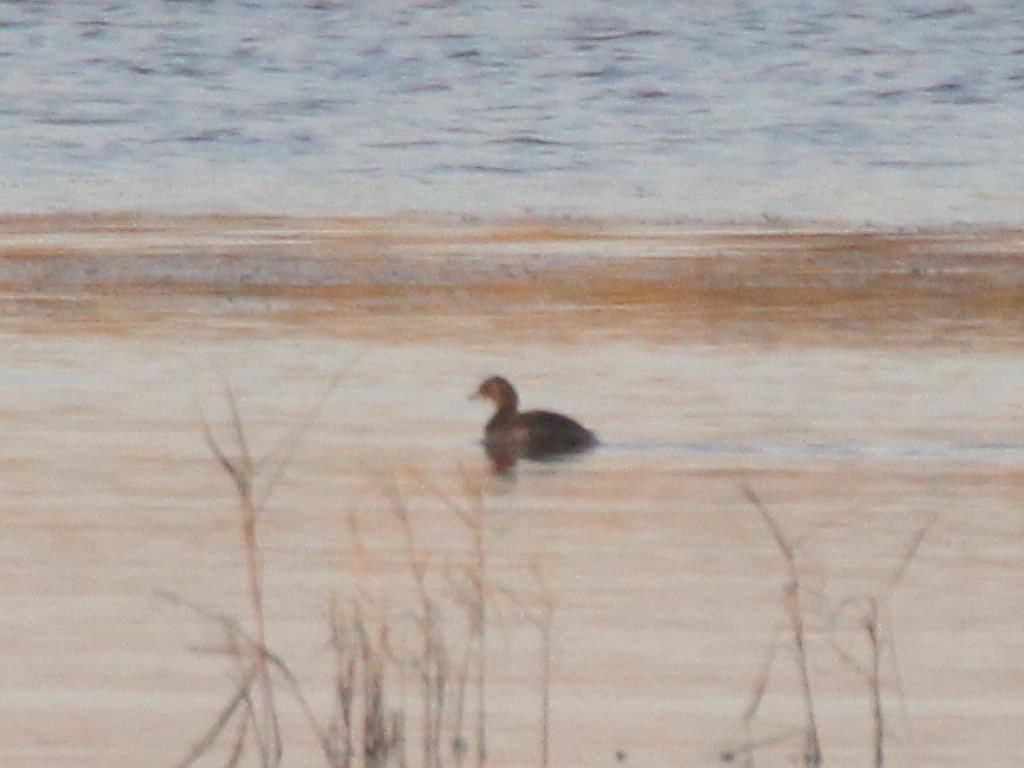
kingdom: Animalia
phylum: Chordata
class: Aves
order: Podicipediformes
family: Podicipedidae
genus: Tachybaptus
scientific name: Tachybaptus ruficollis
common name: Little grebe
